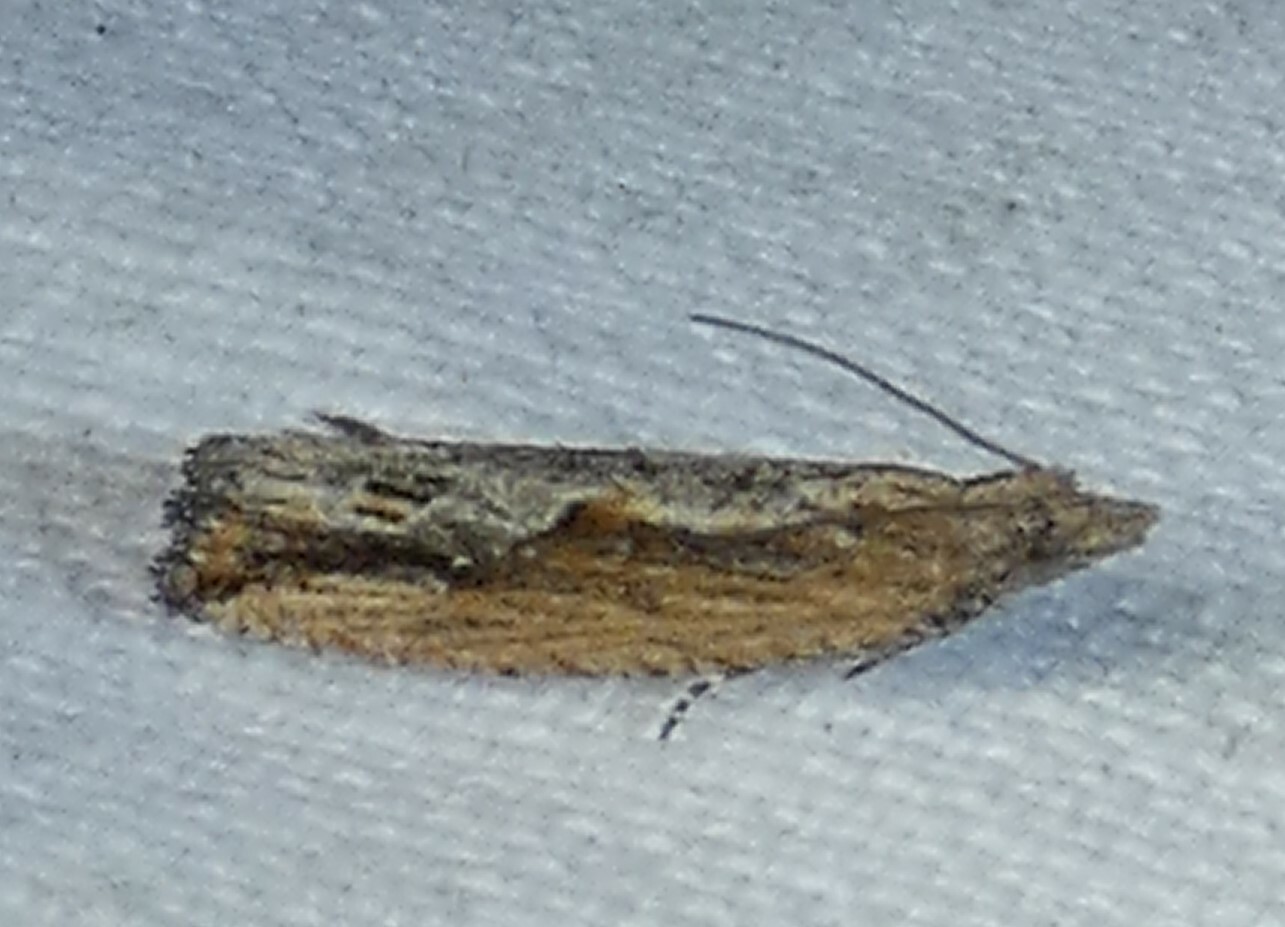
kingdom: Animalia
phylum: Arthropoda
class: Insecta
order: Lepidoptera
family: Tortricidae
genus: Strepsicrates
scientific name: Strepsicrates smithiana
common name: Bayberry leaftier moth
